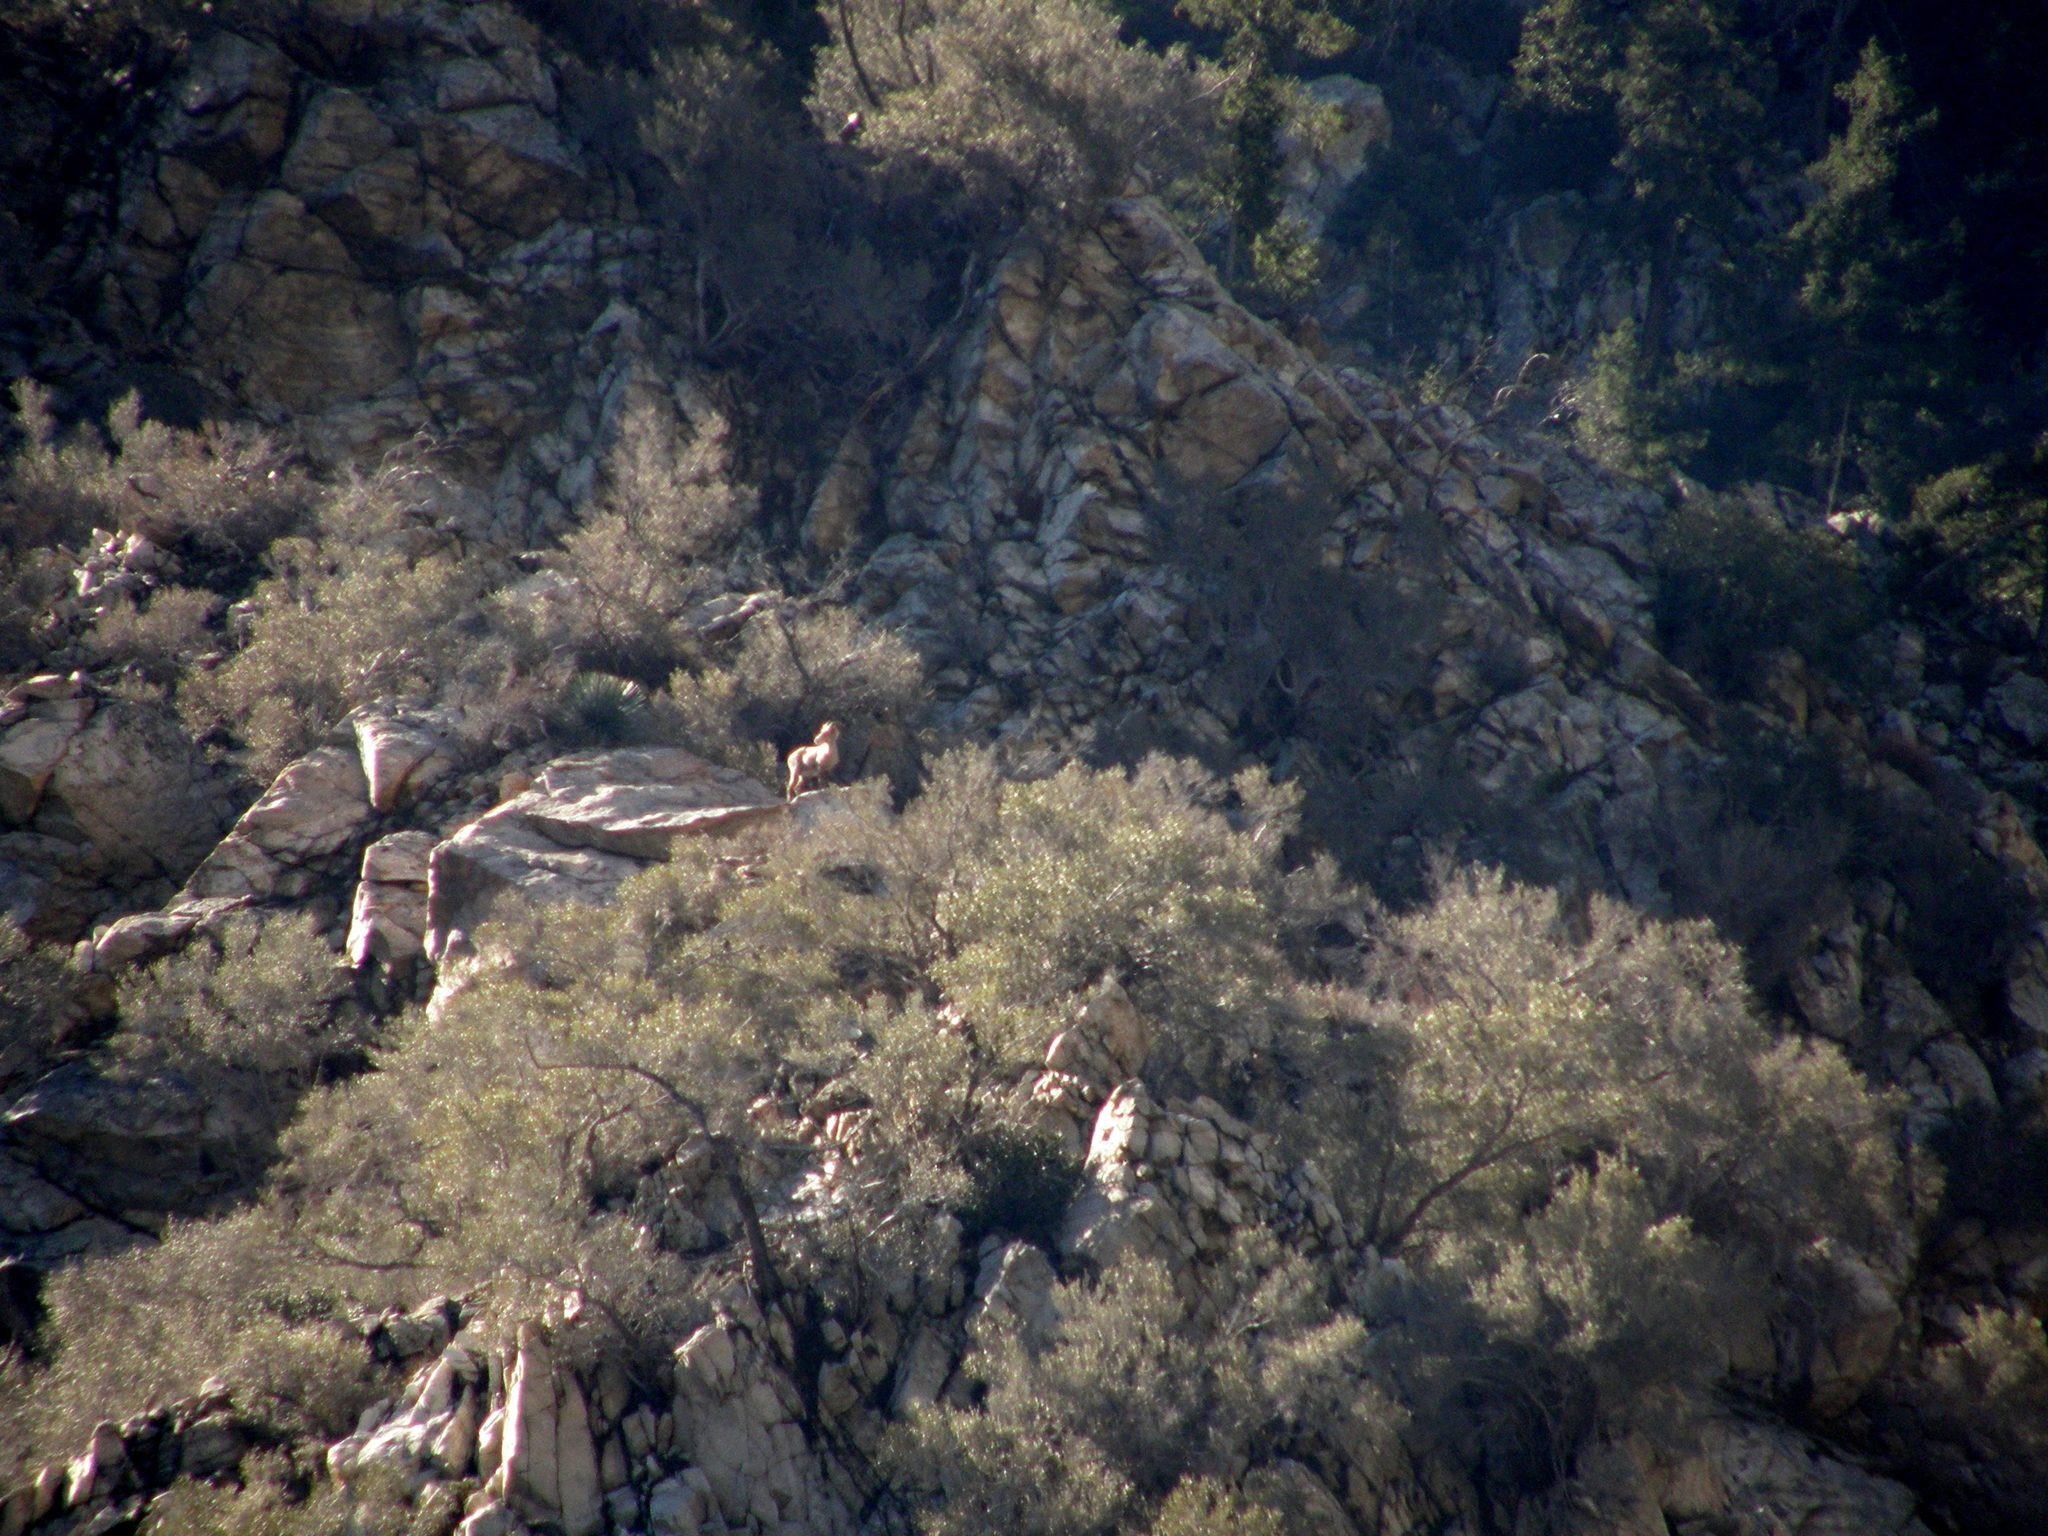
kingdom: Animalia
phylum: Chordata
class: Mammalia
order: Artiodactyla
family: Bovidae
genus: Ovis
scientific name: Ovis canadensis
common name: Bighorn sheep
